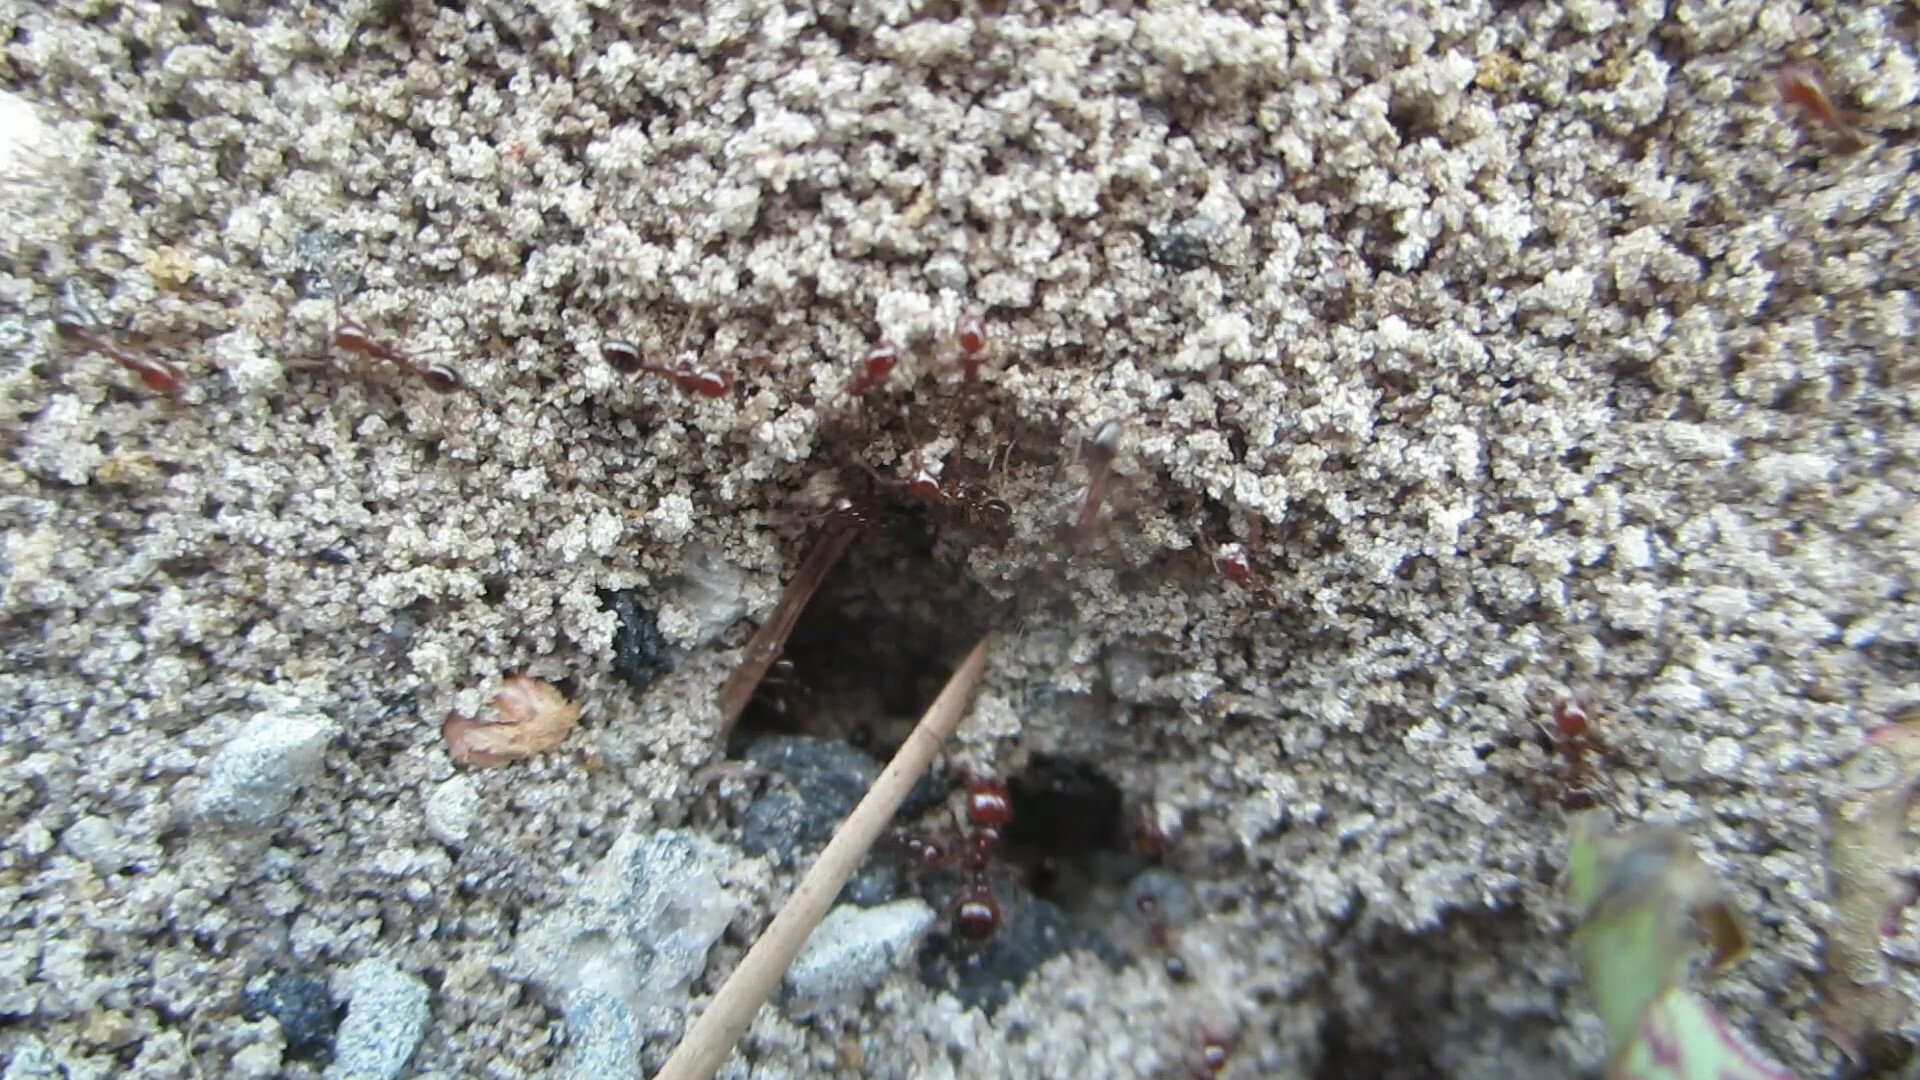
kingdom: Animalia
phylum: Arthropoda
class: Insecta
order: Hymenoptera
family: Formicidae
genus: Solenopsis
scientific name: Solenopsis invicta
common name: Red imported fire ant
